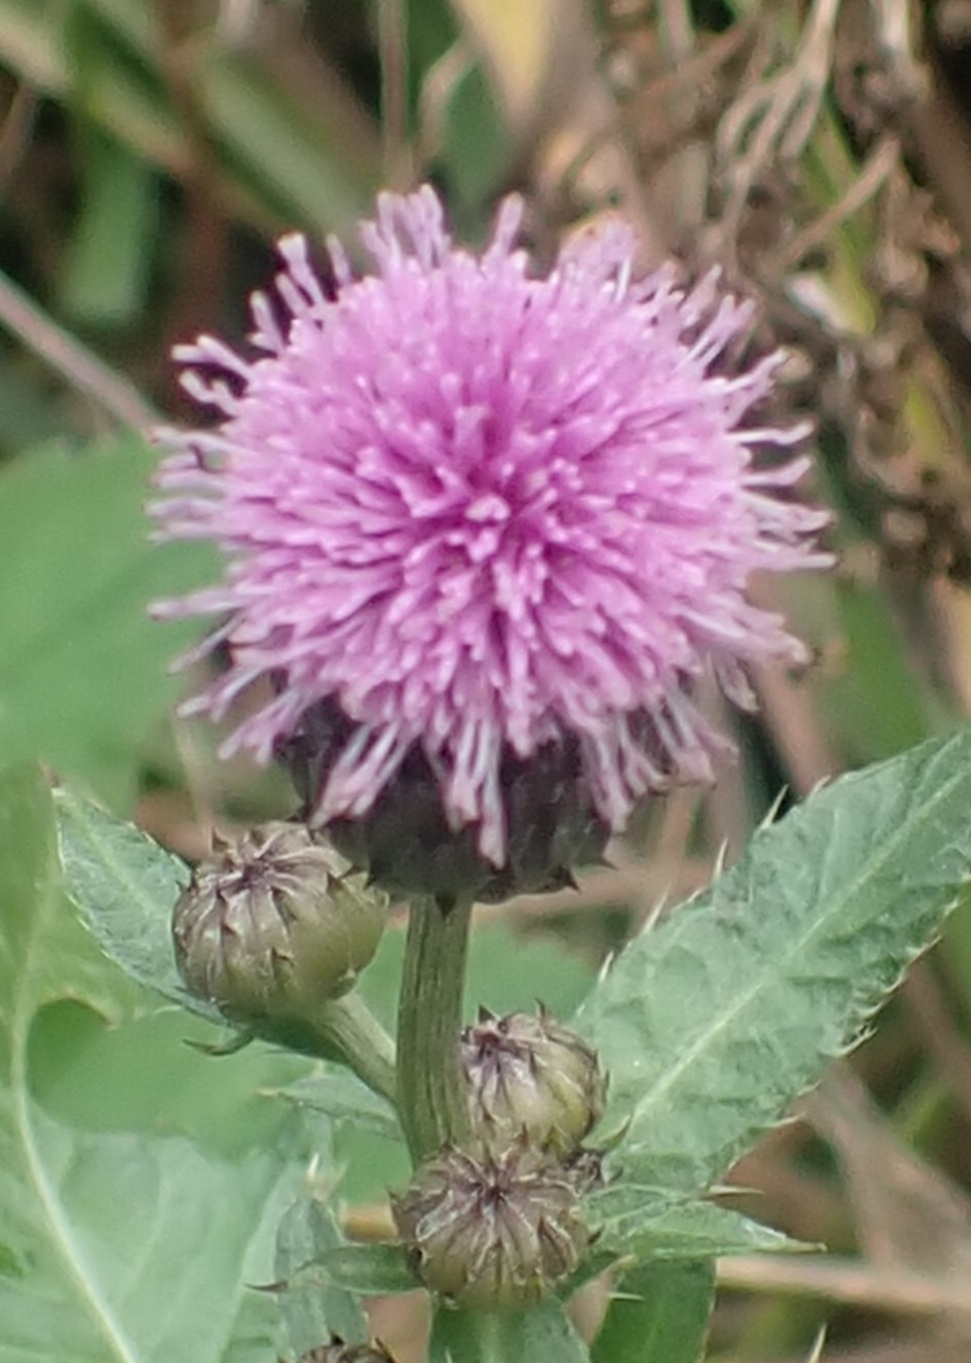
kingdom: Plantae
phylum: Tracheophyta
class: Magnoliopsida
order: Asterales
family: Asteraceae
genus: Cirsium
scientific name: Cirsium arvense
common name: Creeping thistle
